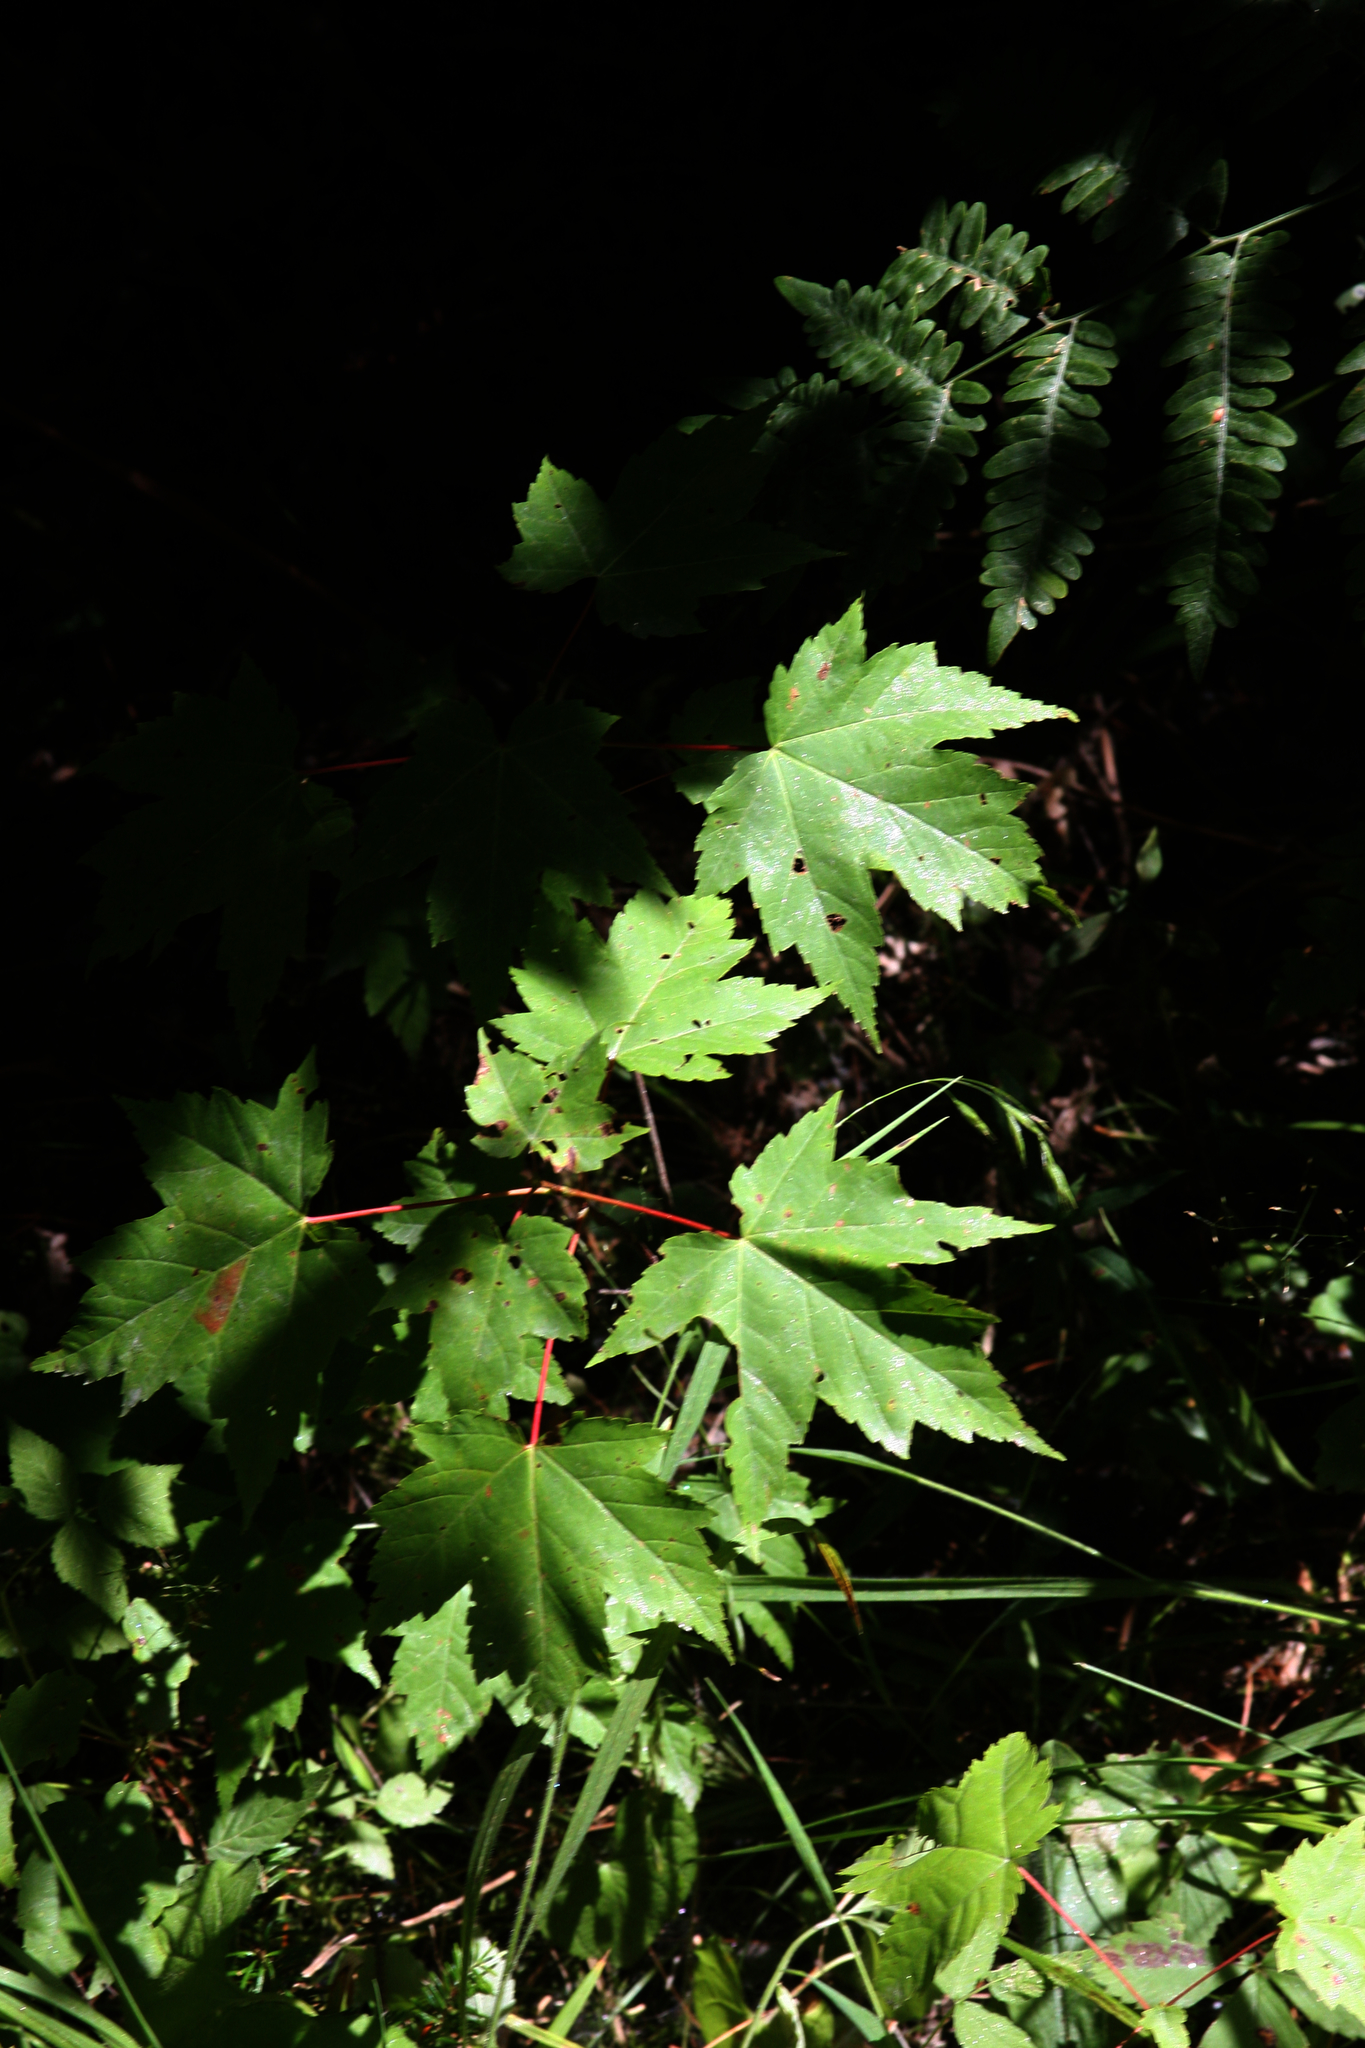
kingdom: Plantae
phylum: Tracheophyta
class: Magnoliopsida
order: Sapindales
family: Sapindaceae
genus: Acer
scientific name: Acer rubrum
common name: Red maple
